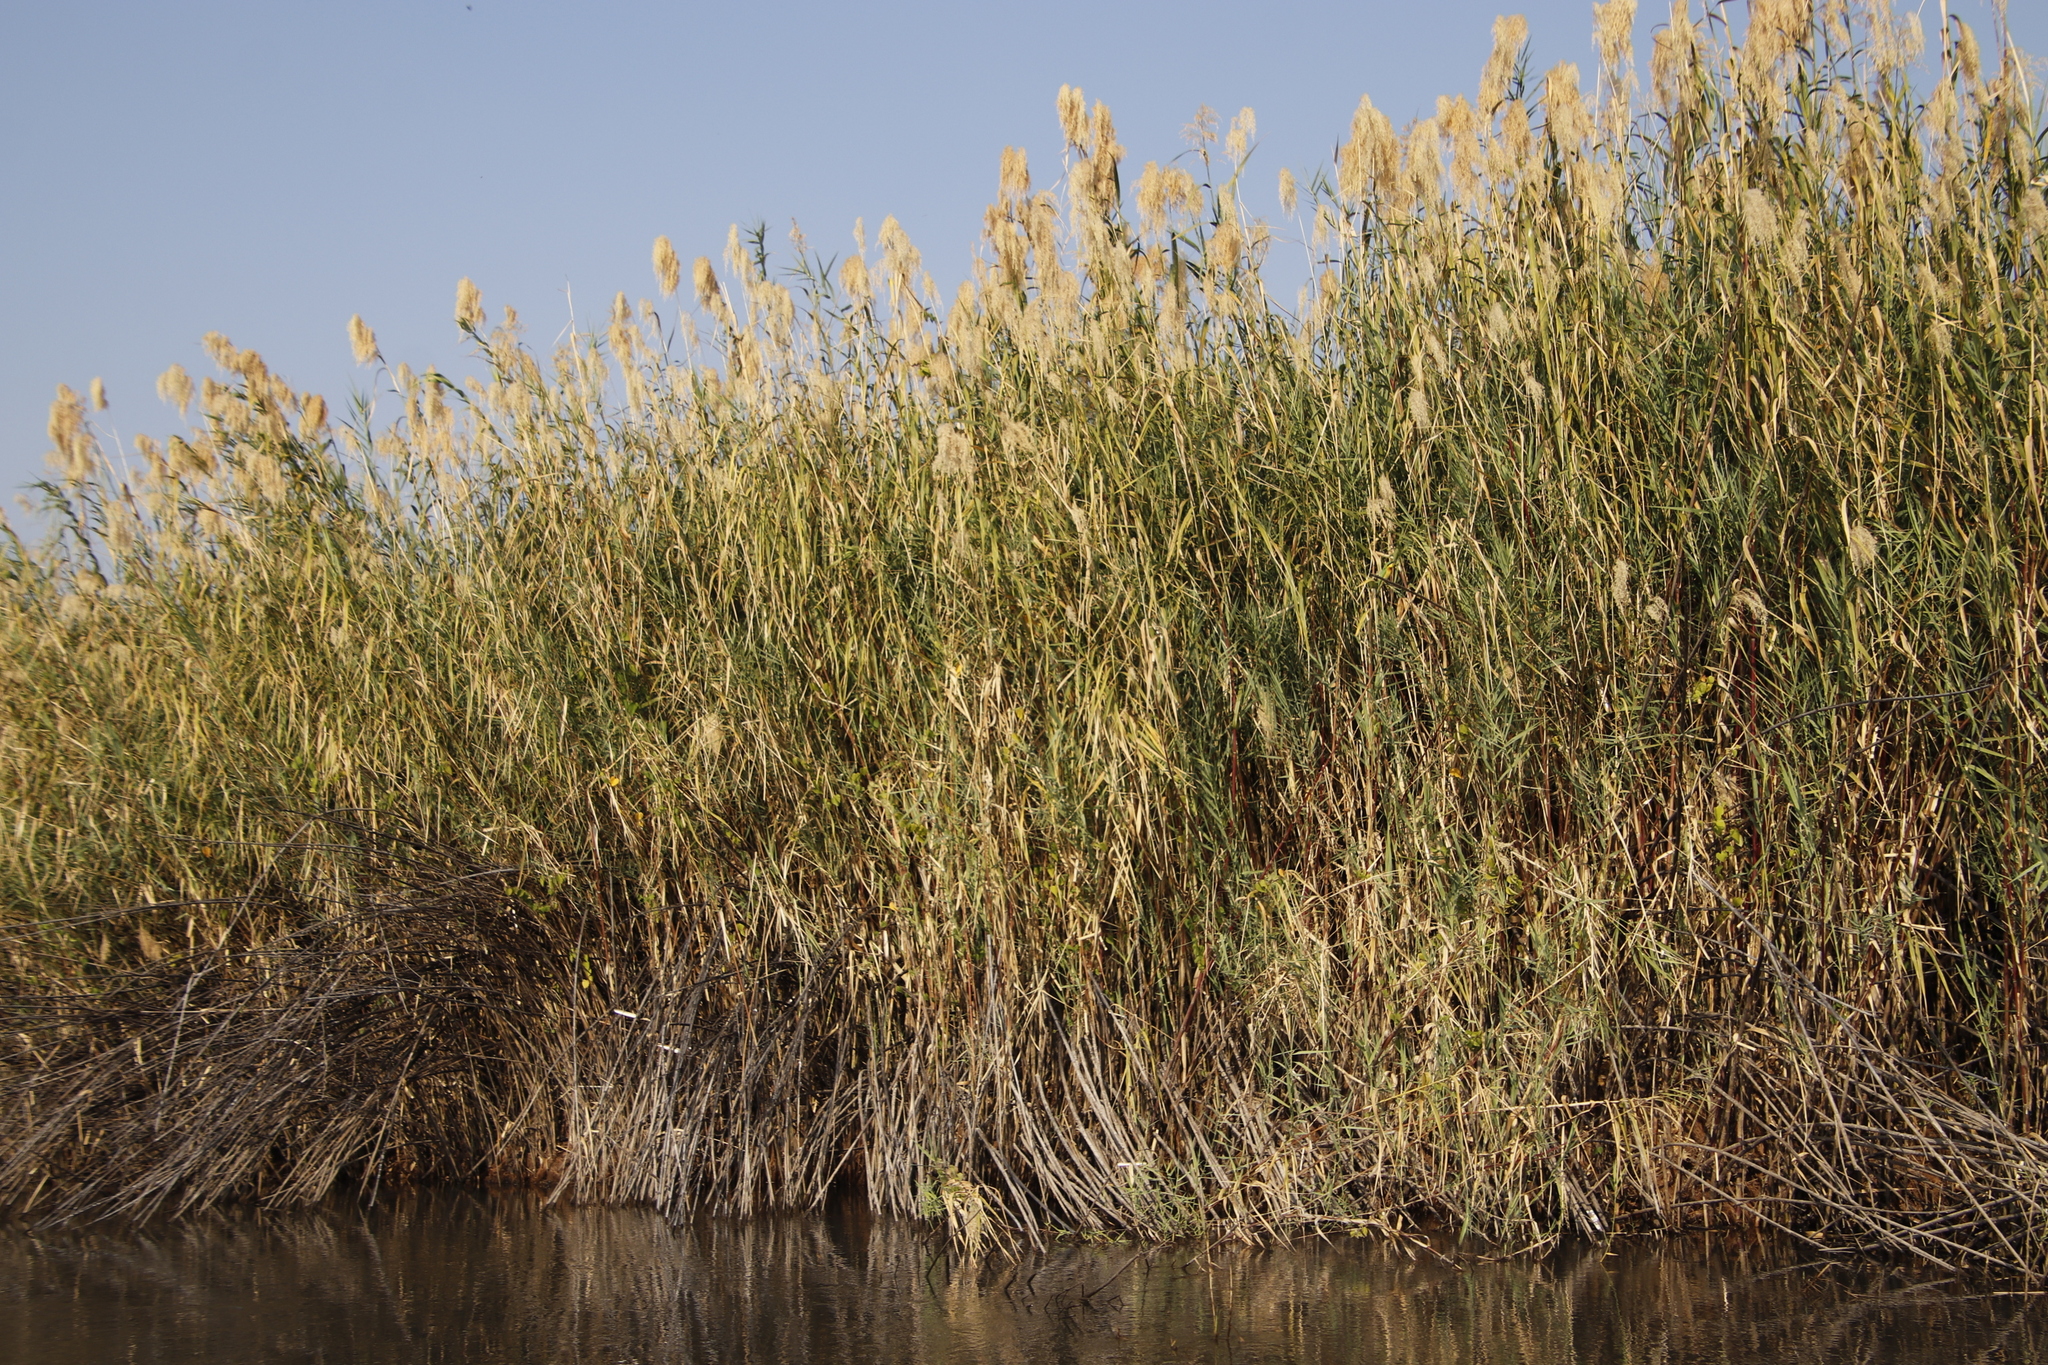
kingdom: Plantae
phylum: Tracheophyta
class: Liliopsida
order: Poales
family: Poaceae
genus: Phragmites
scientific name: Phragmites australis
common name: Common reed
